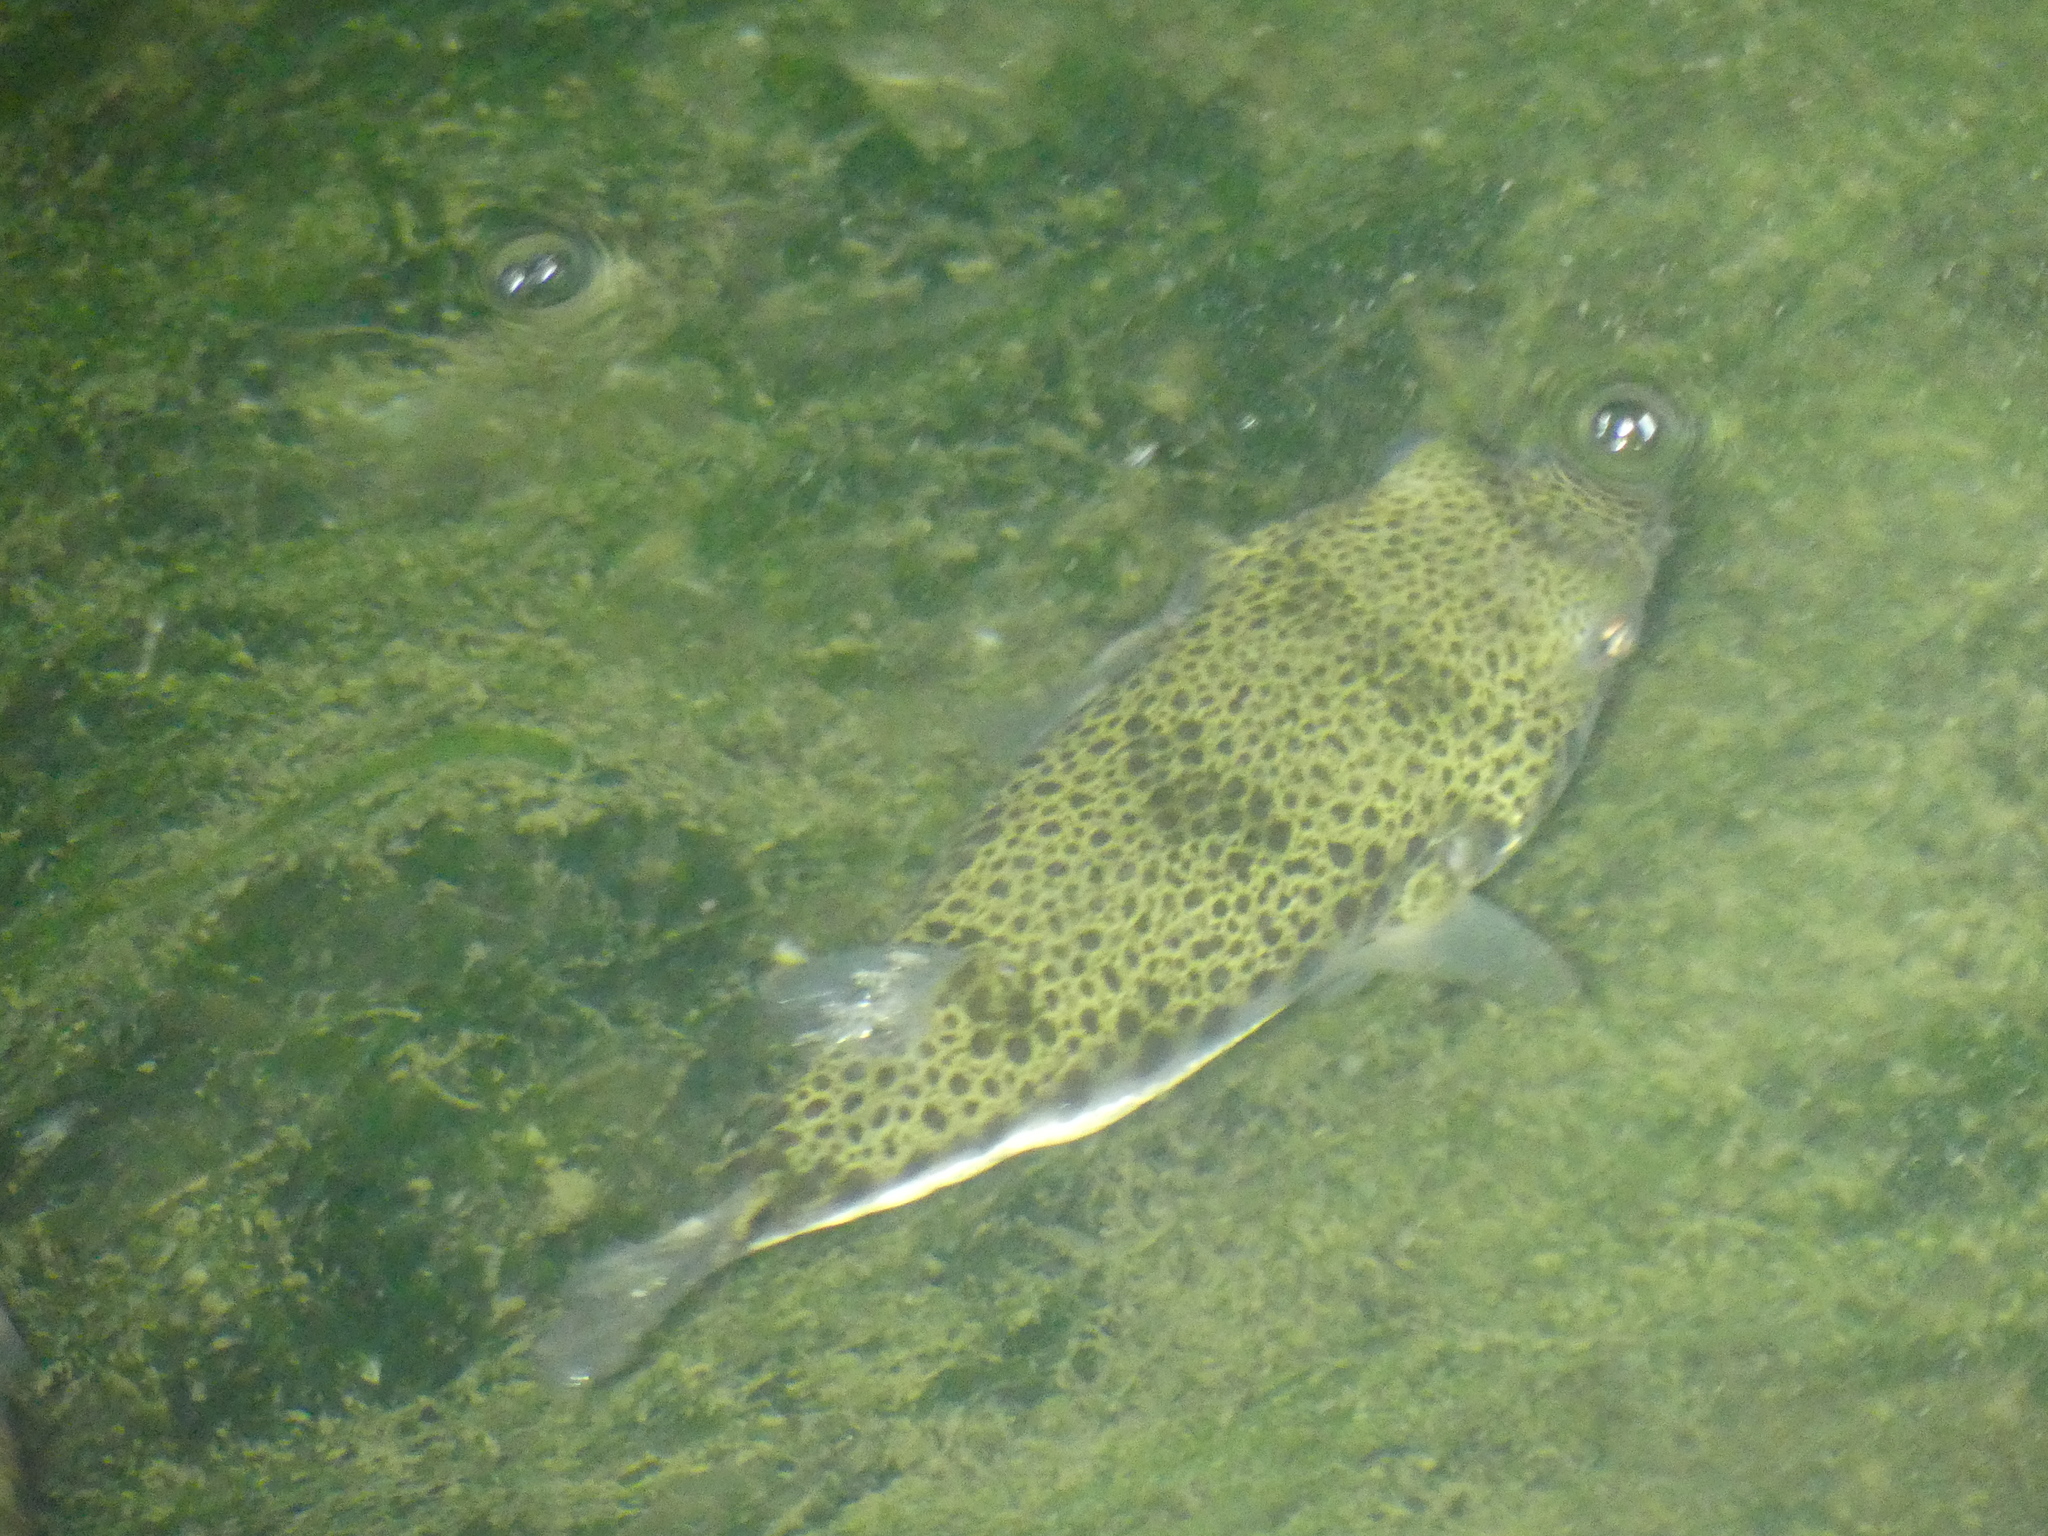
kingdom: Animalia
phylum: Chordata
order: Tetraodontiformes
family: Tetraodontidae
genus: Tetractenos
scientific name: Tetractenos hamiltoni
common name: Common toadfish
